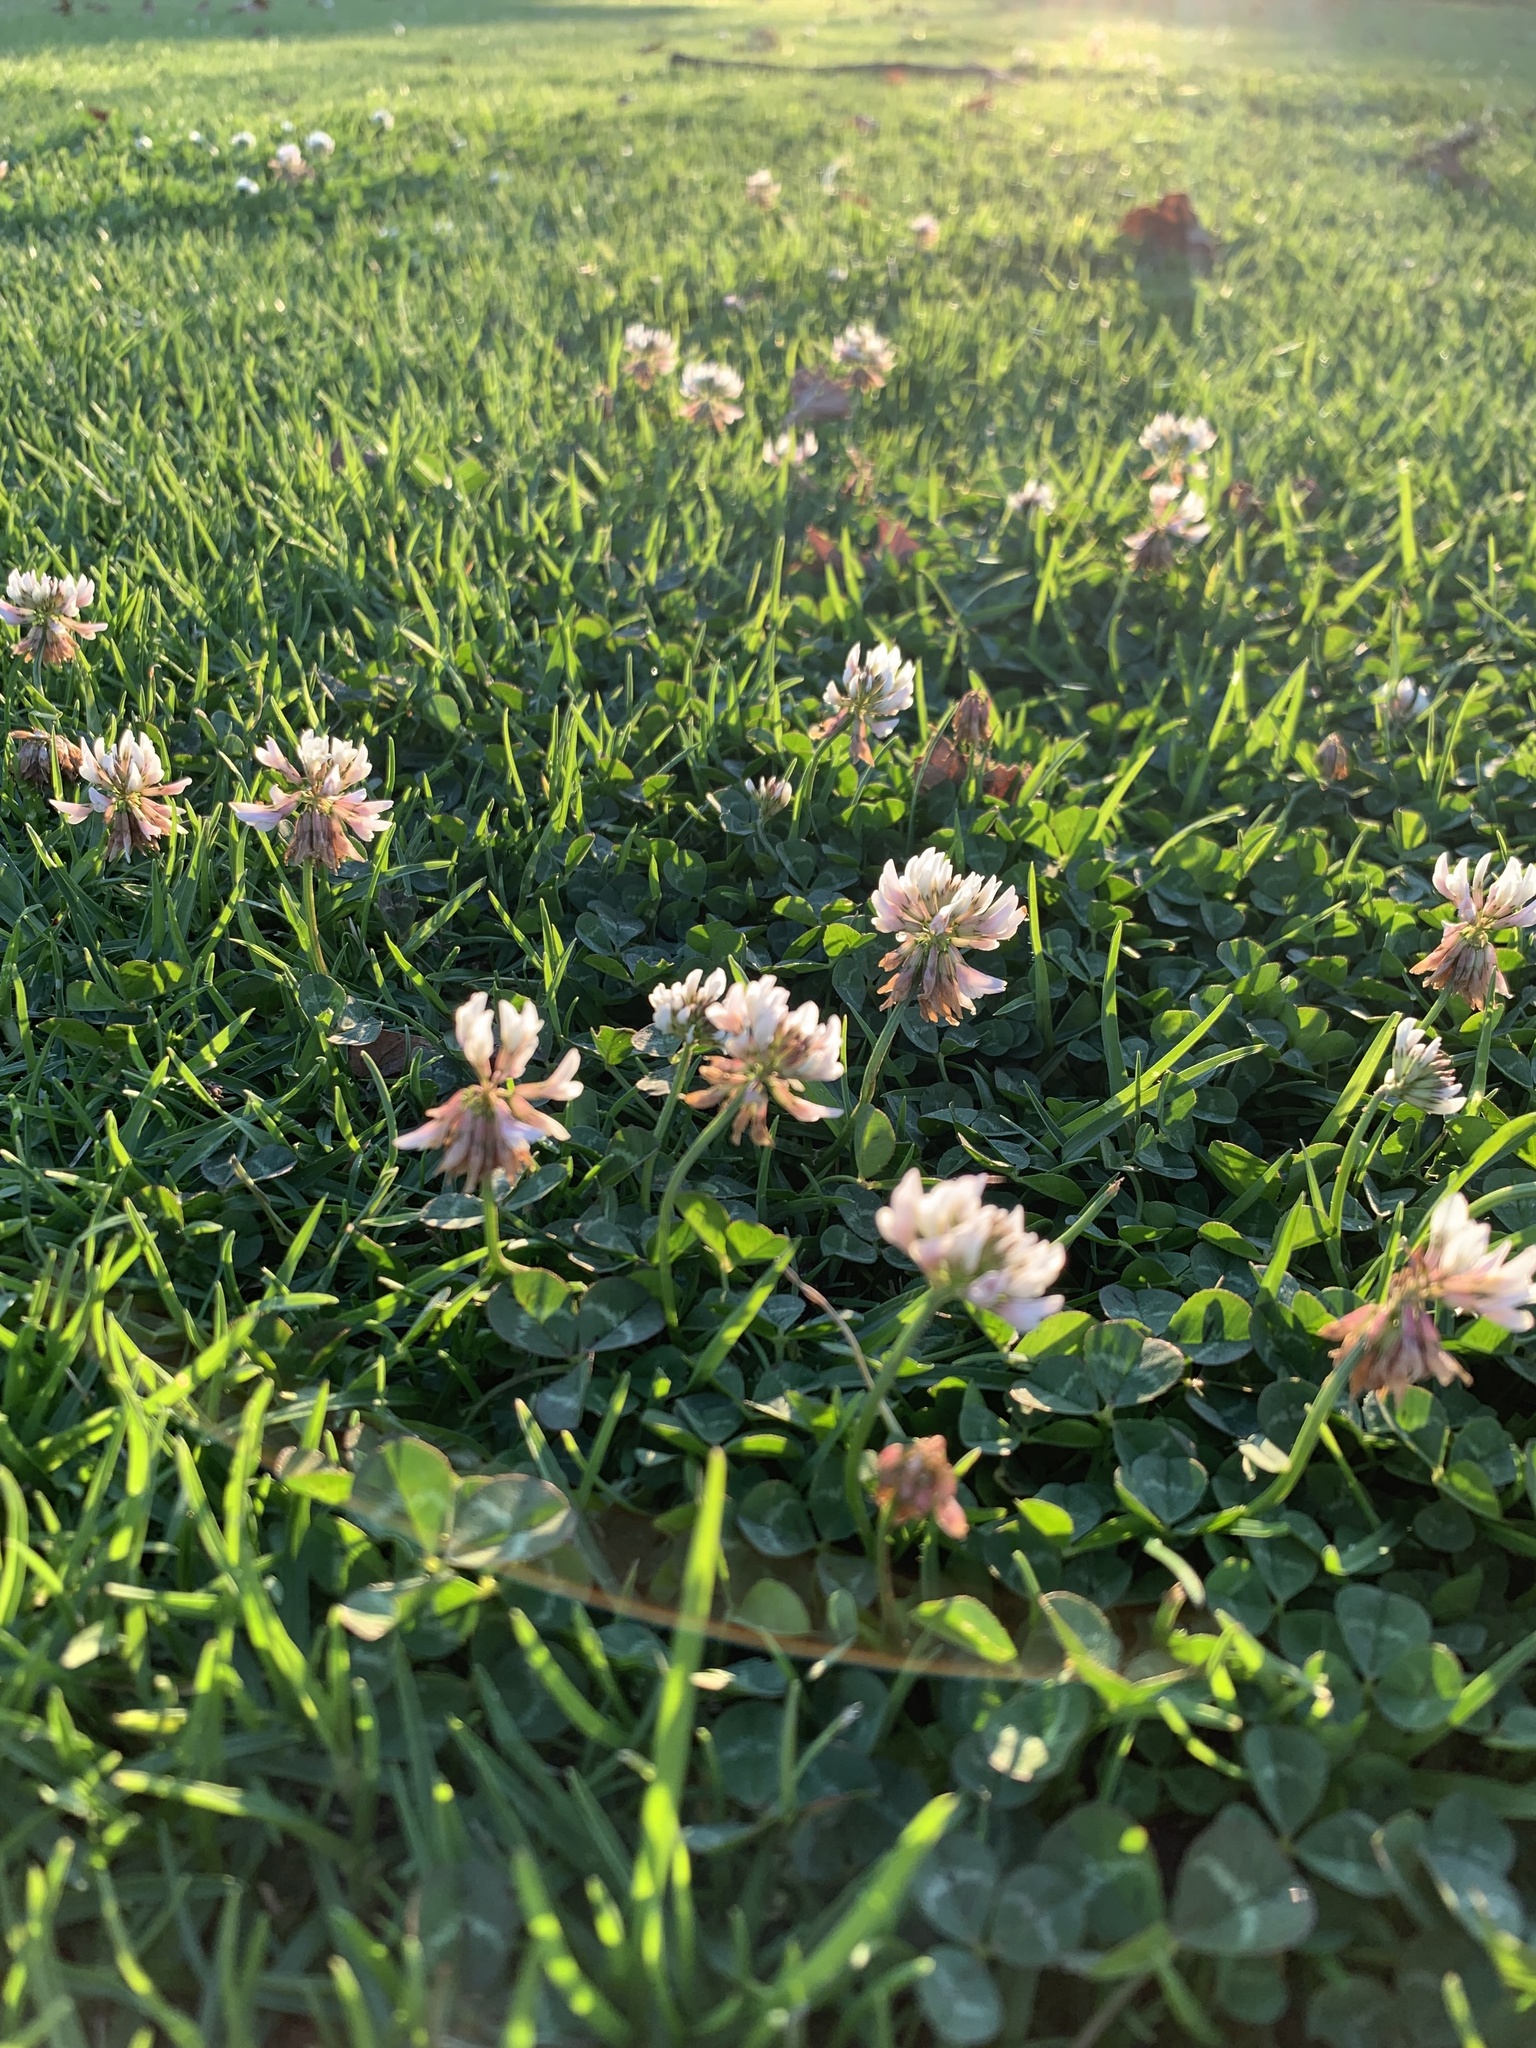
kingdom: Plantae
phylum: Tracheophyta
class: Magnoliopsida
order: Fabales
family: Fabaceae
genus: Trifolium
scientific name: Trifolium repens
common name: White clover
